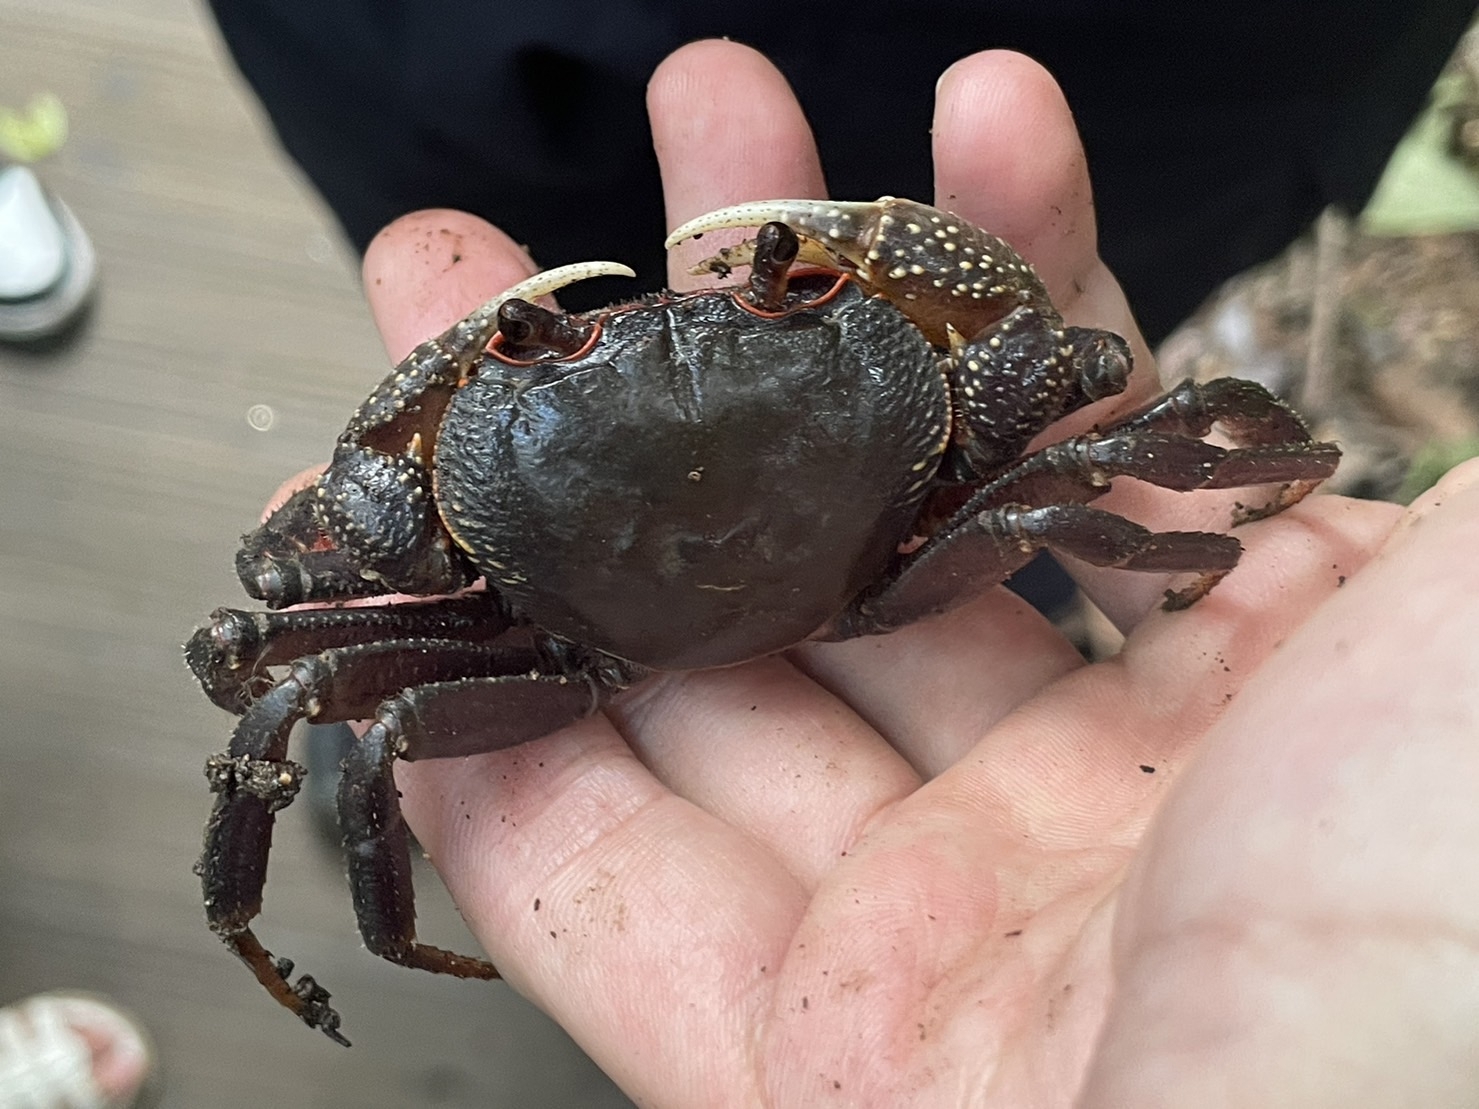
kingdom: Animalia
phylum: Arthropoda
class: Malacostraca
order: Decapoda
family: Potamidae
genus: Potamiscus
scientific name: Potamiscus montosus
